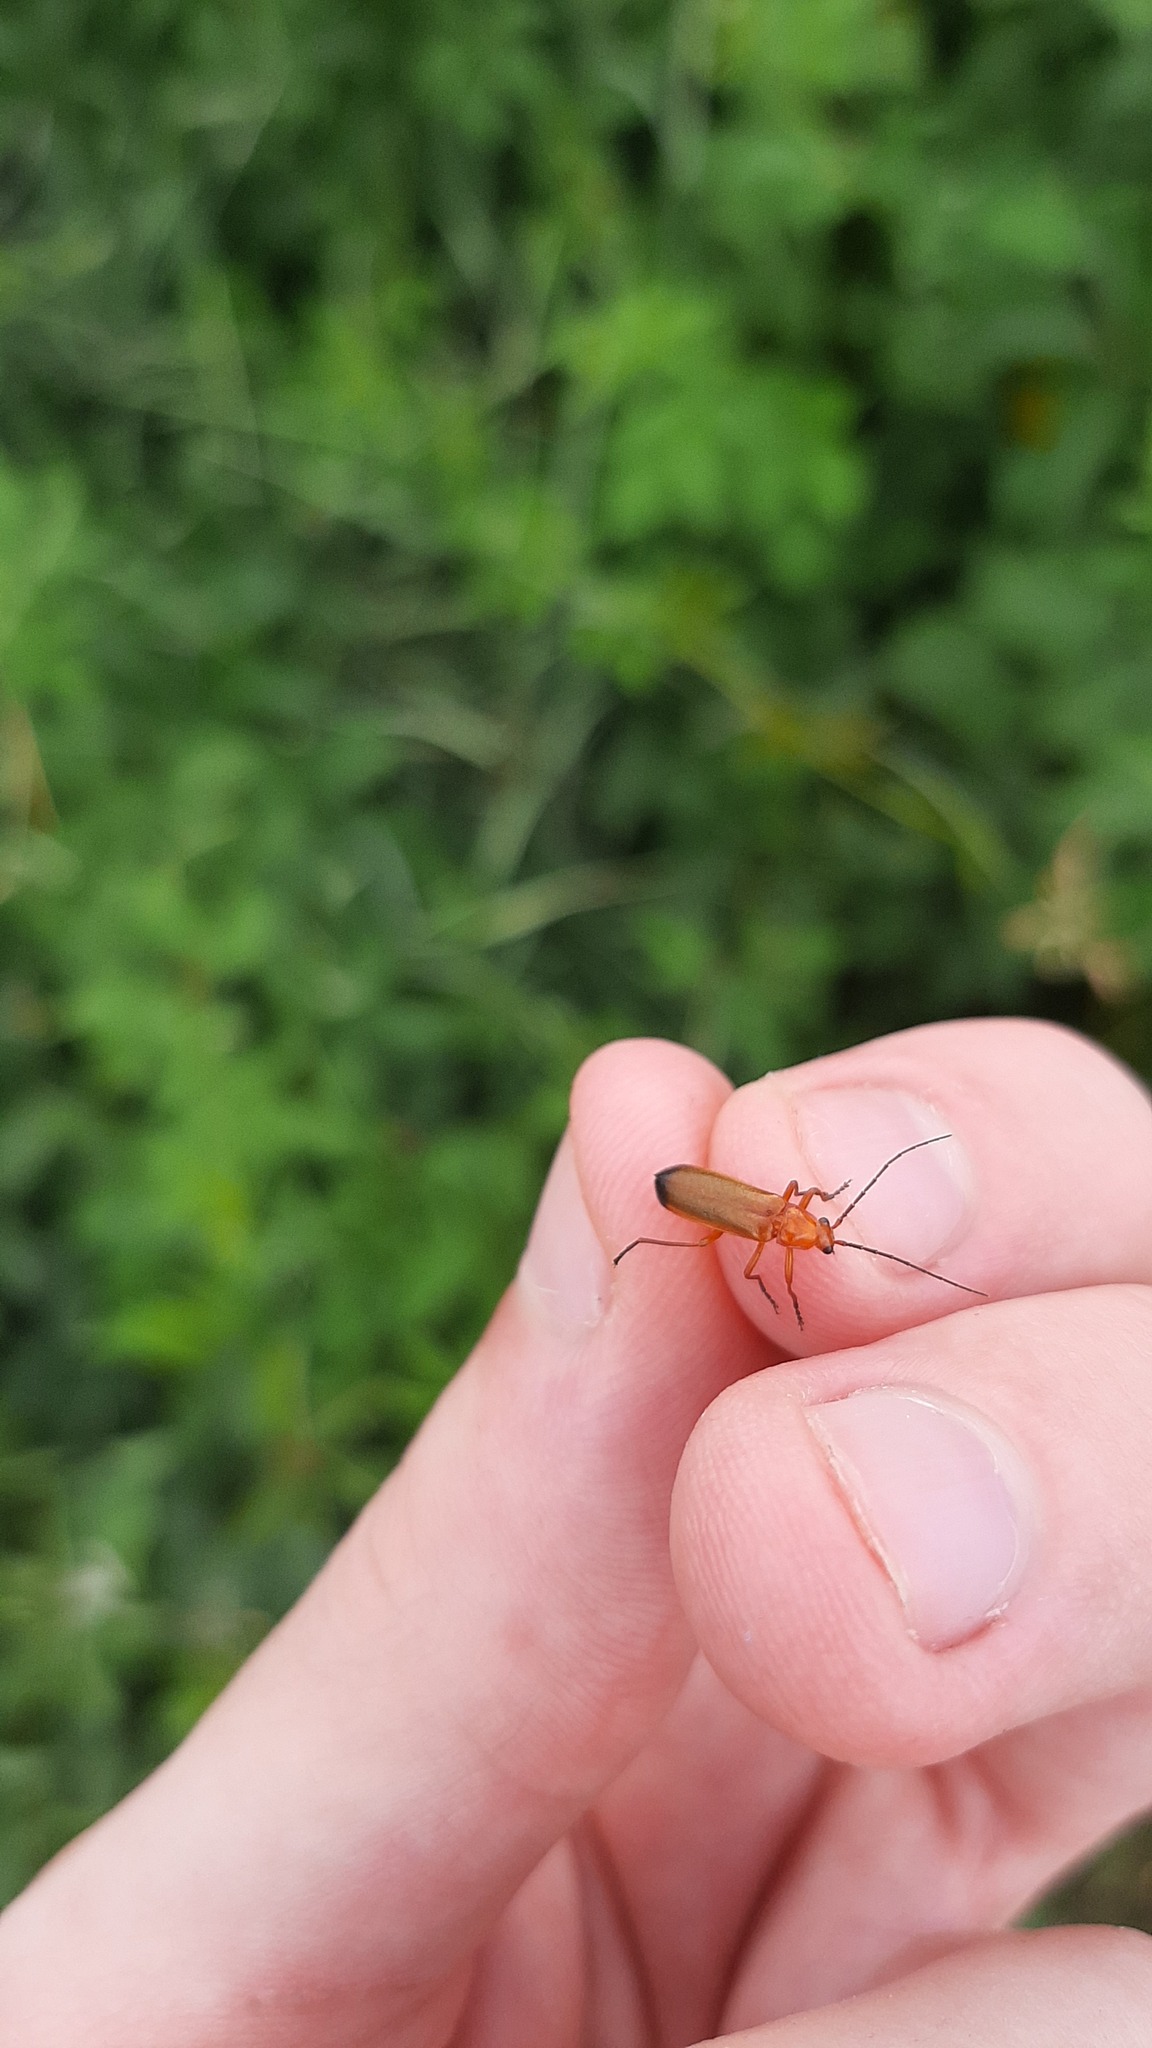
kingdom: Animalia
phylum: Arthropoda
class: Insecta
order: Coleoptera
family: Cantharidae
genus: Rhagonycha
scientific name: Rhagonycha fulva
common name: Common red soldier beetle
